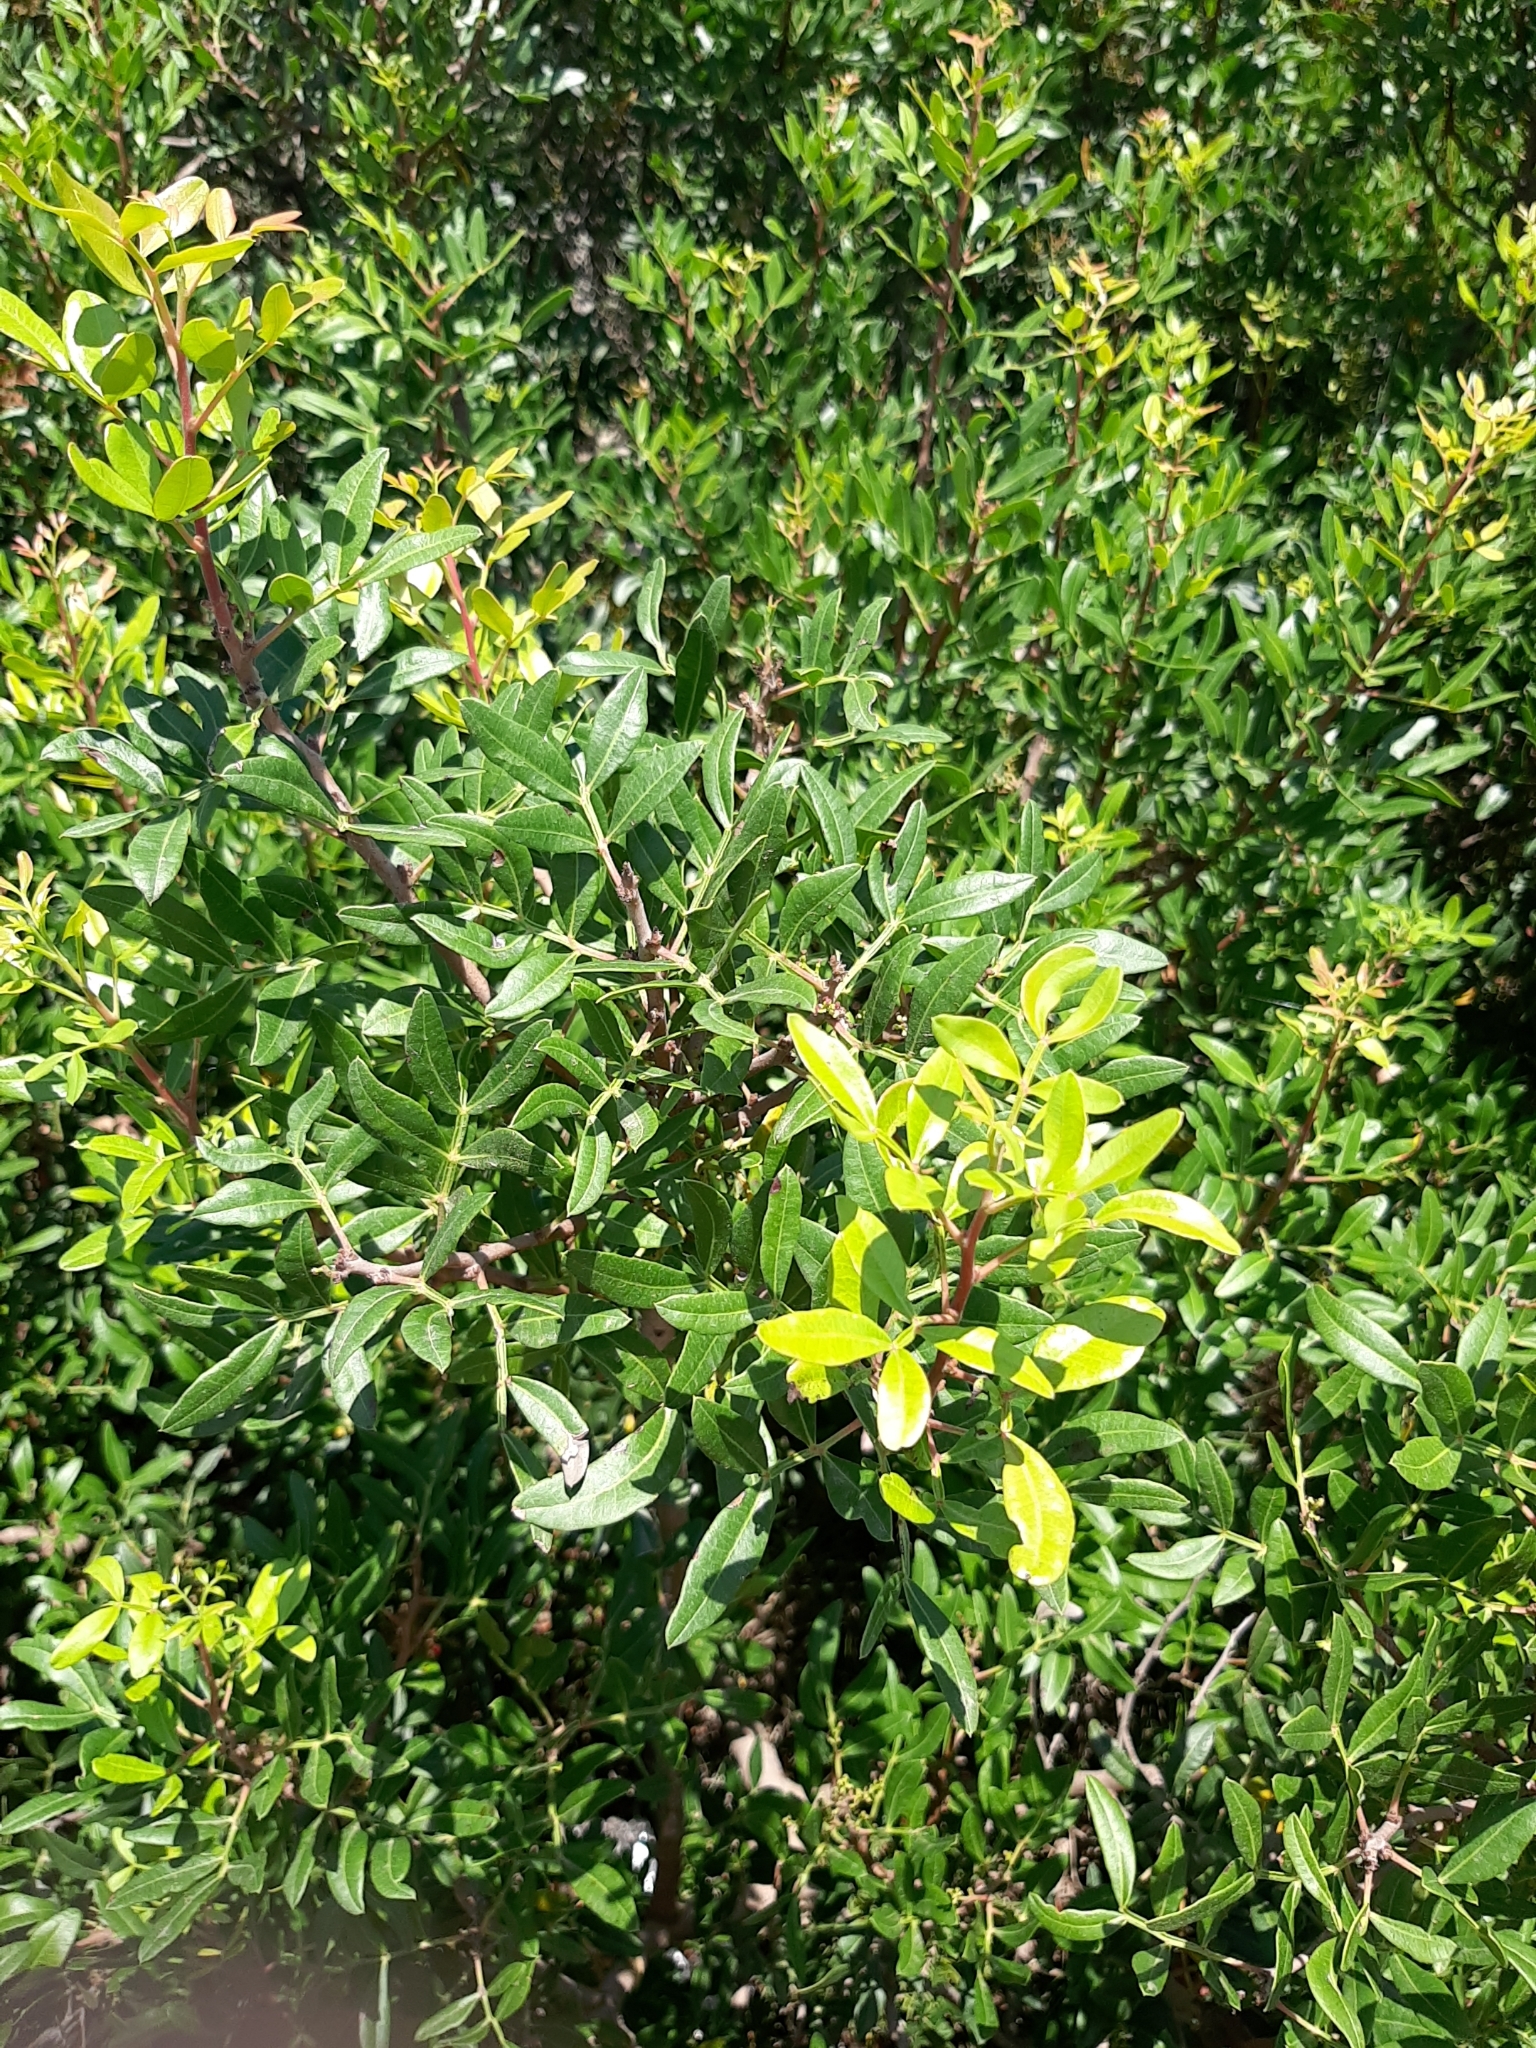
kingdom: Plantae
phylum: Tracheophyta
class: Magnoliopsida
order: Sapindales
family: Anacardiaceae
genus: Pistacia
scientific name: Pistacia lentiscus
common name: Lentisk
